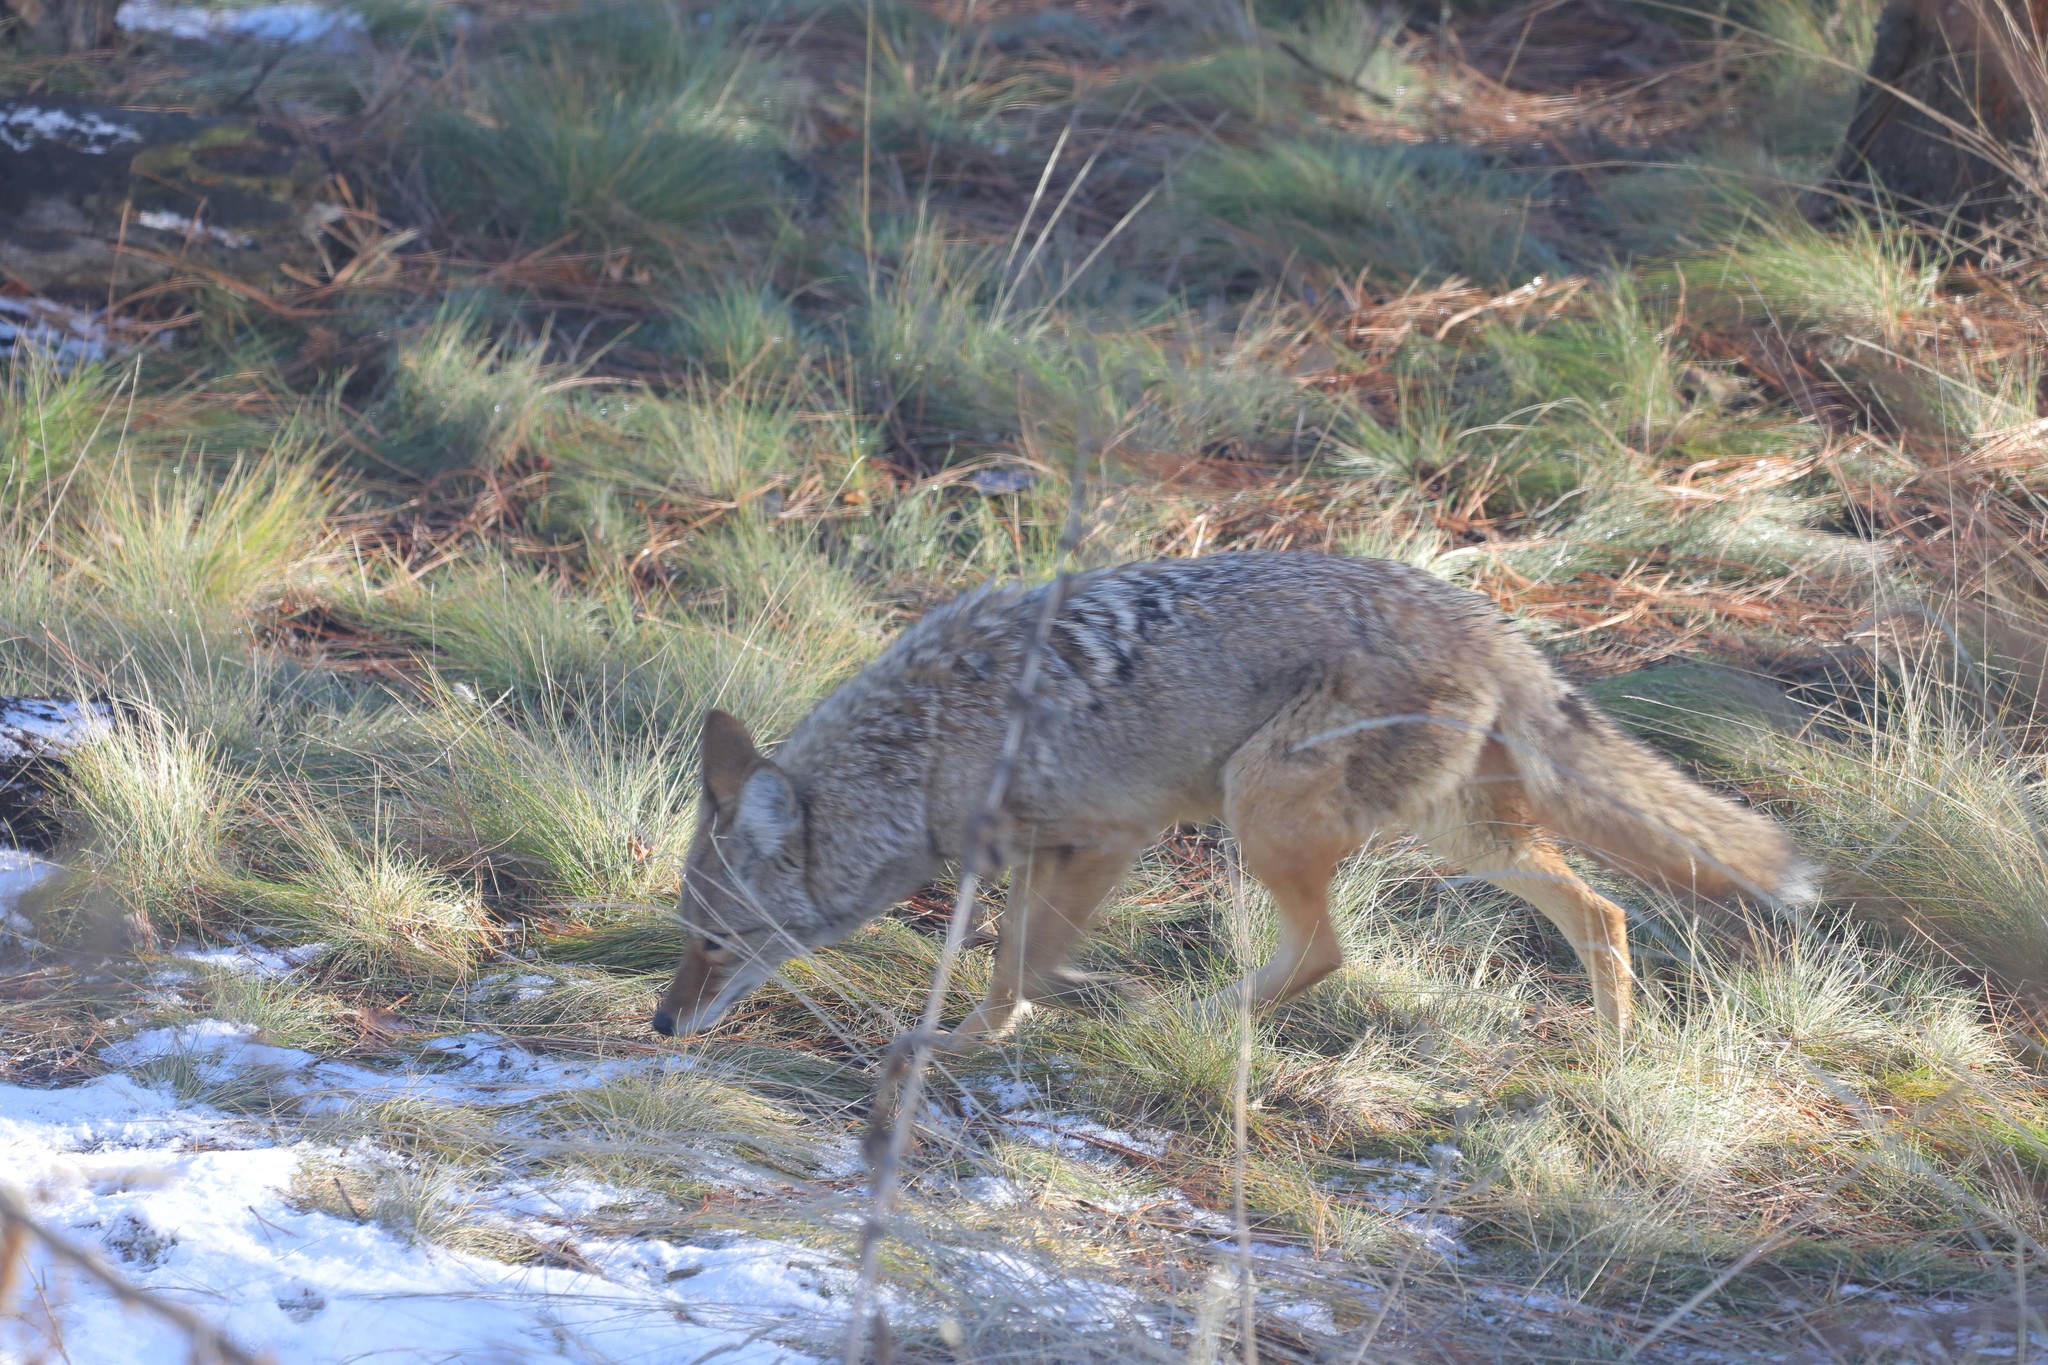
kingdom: Animalia
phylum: Chordata
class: Mammalia
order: Carnivora
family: Canidae
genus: Canis
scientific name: Canis latrans
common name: Coyote
